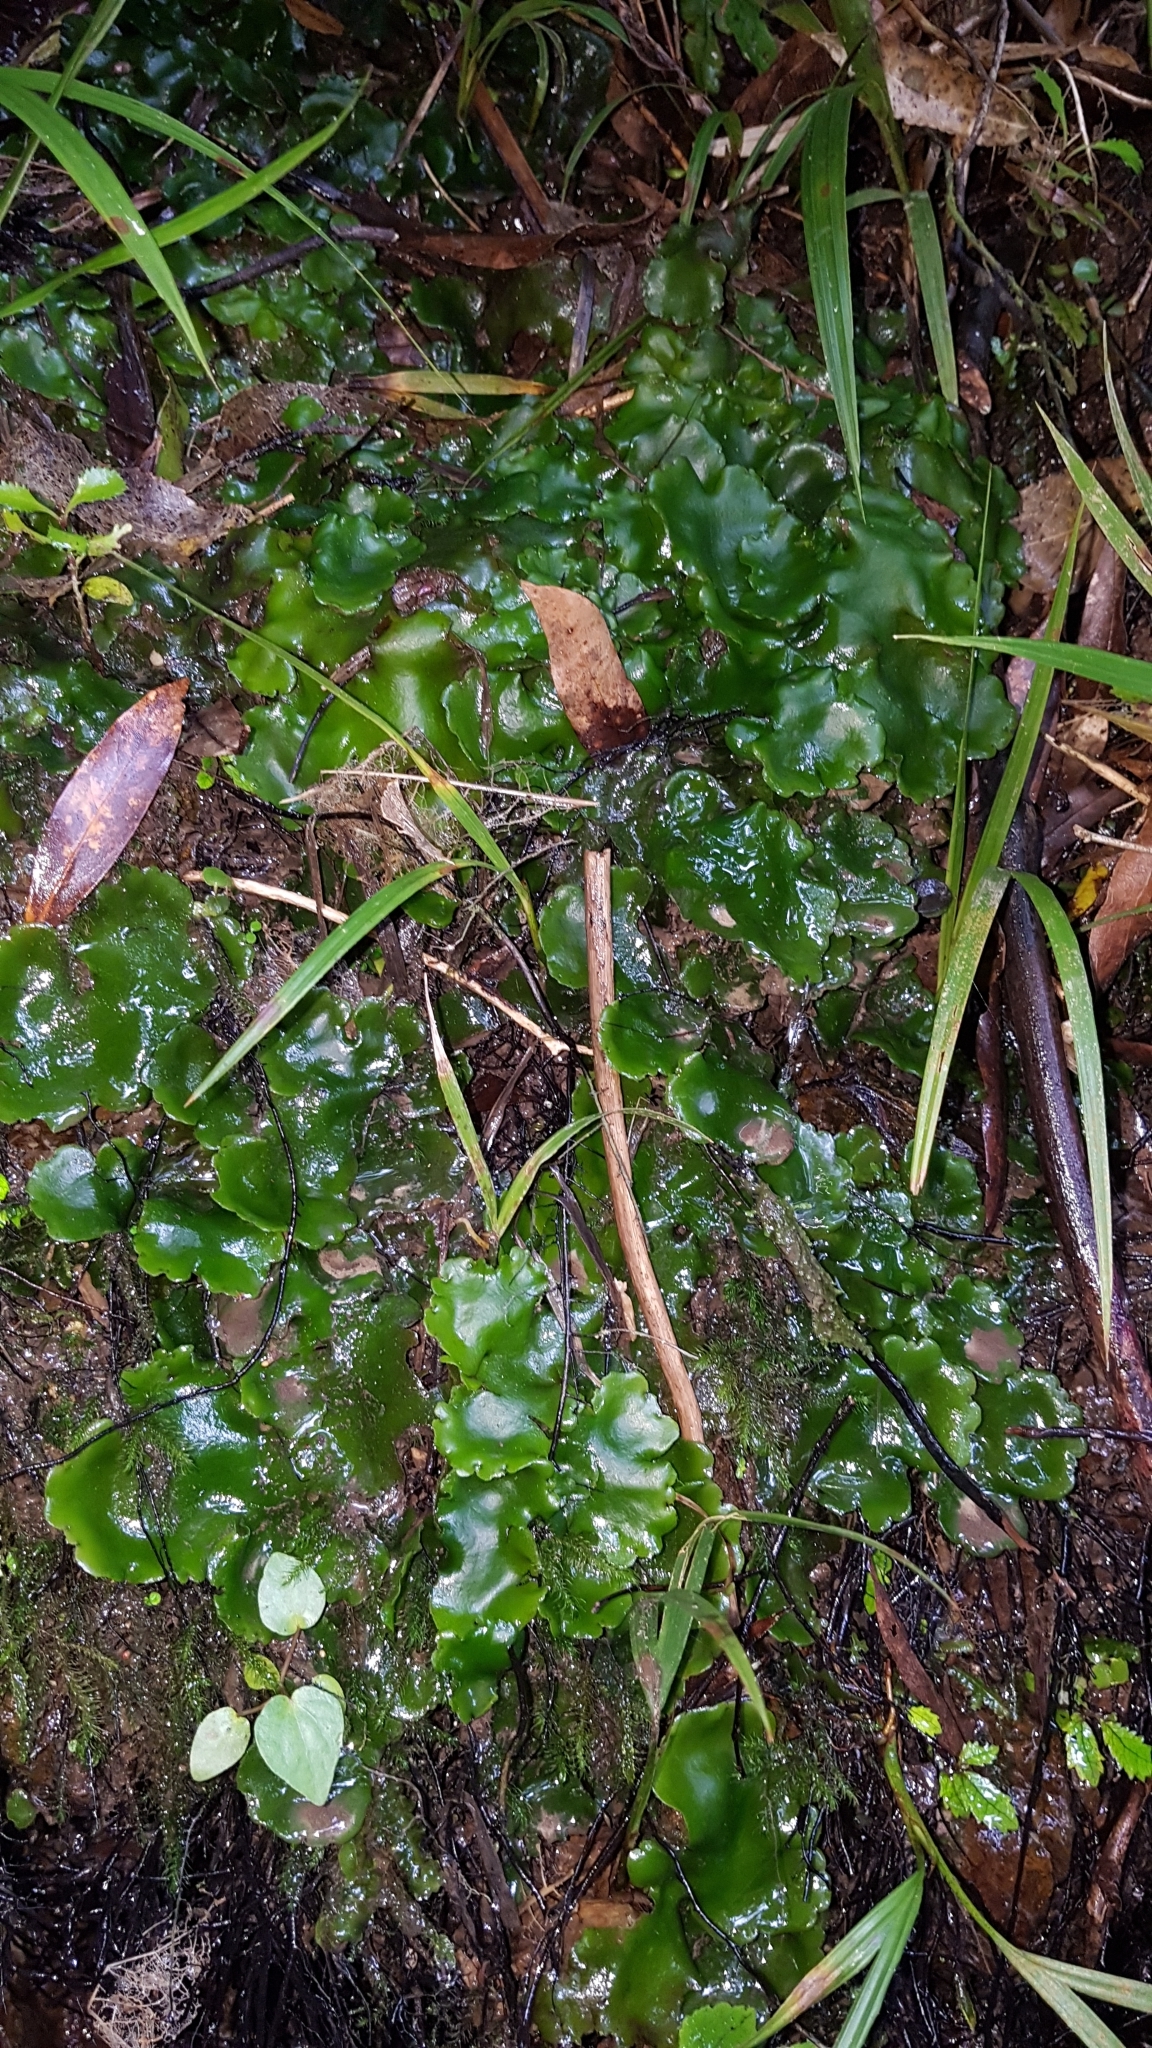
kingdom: Plantae
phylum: Marchantiophyta
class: Marchantiopsida
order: Marchantiales
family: Monocleaceae
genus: Monoclea
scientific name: Monoclea forsteri
